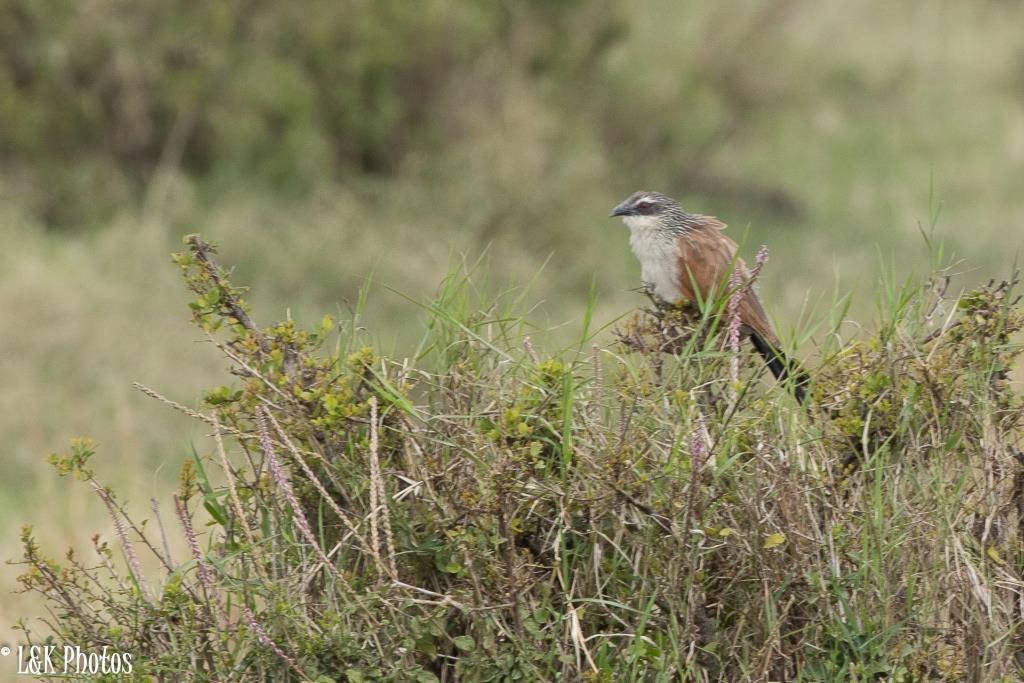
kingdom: Animalia
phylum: Chordata
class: Aves
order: Cuculiformes
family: Cuculidae
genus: Centropus
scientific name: Centropus superciliosus
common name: White-browed coucal
